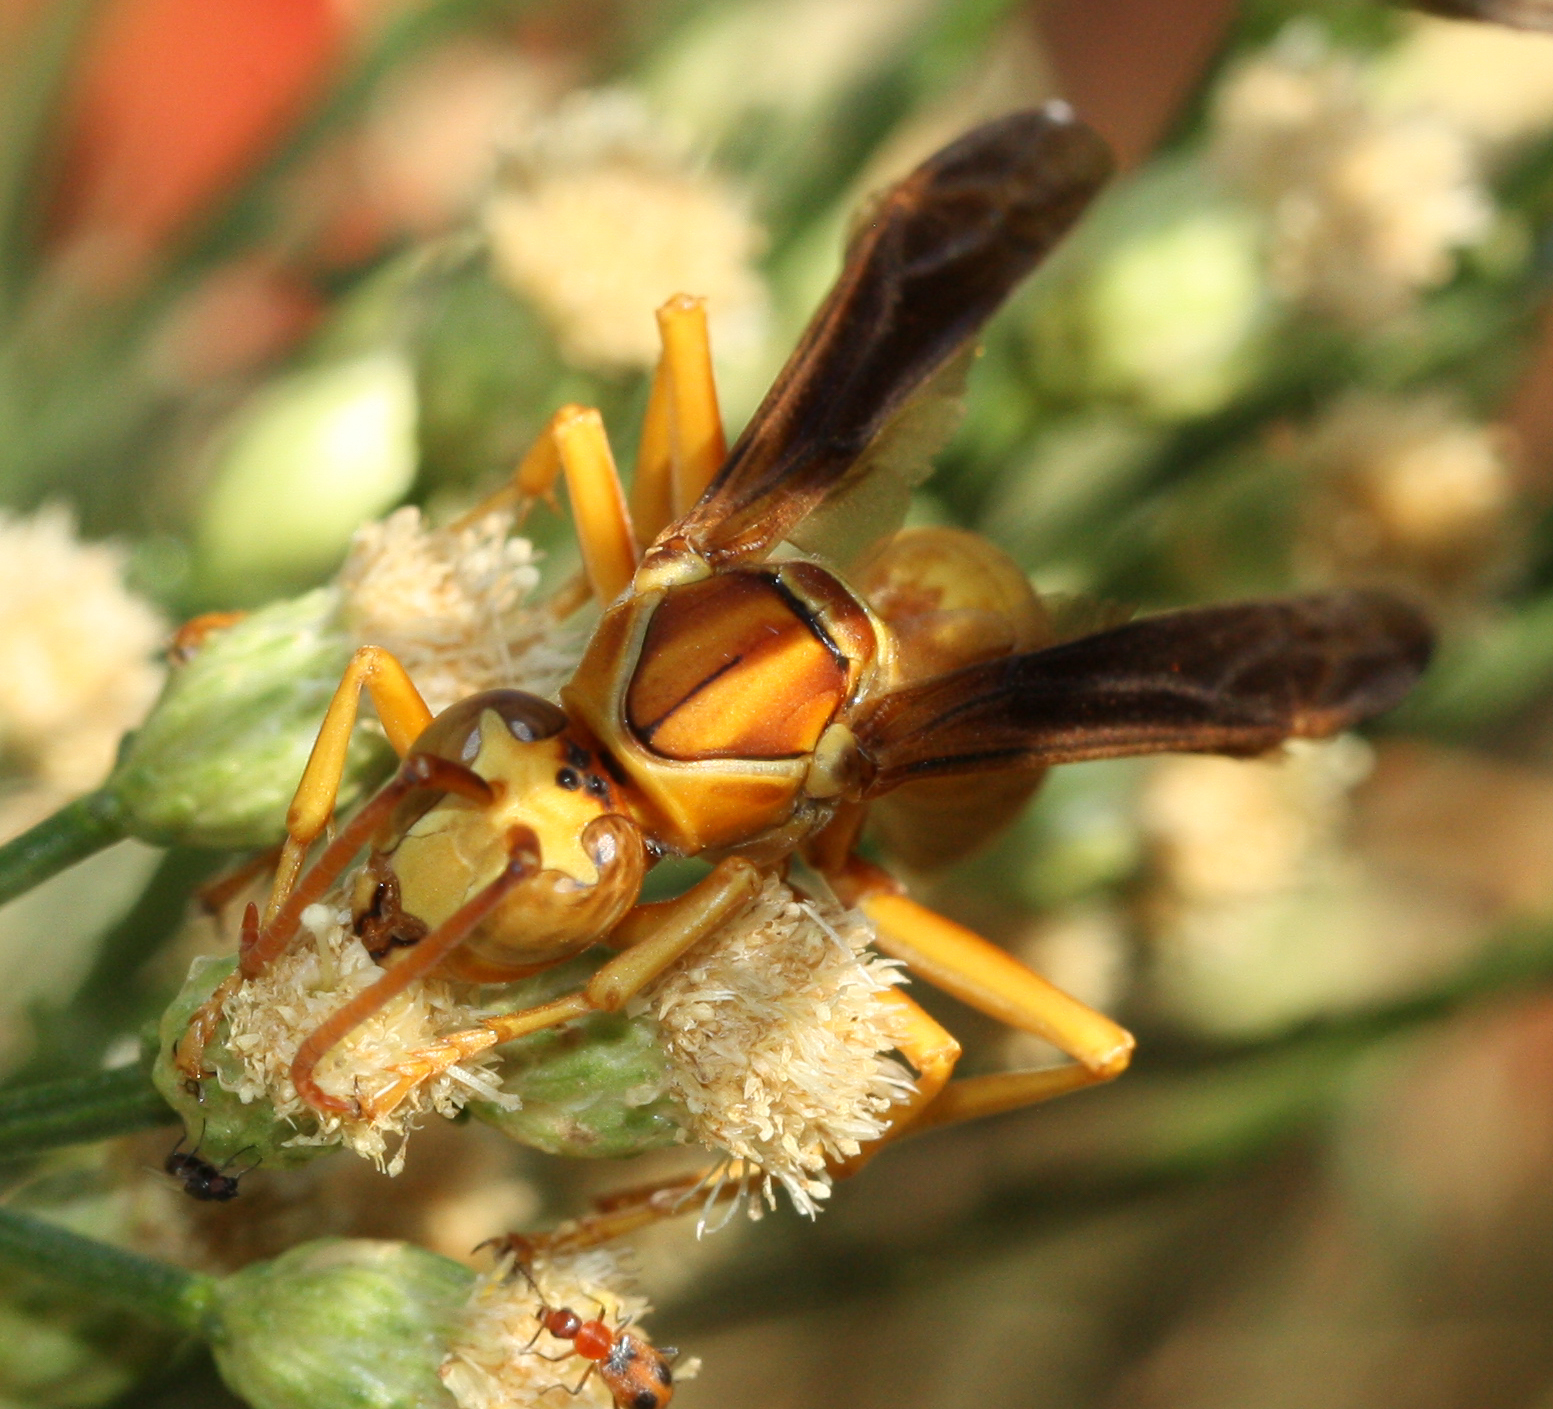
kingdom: Animalia
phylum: Arthropoda
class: Insecta
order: Hymenoptera
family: Eumenidae
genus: Polistes
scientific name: Polistes flavus
